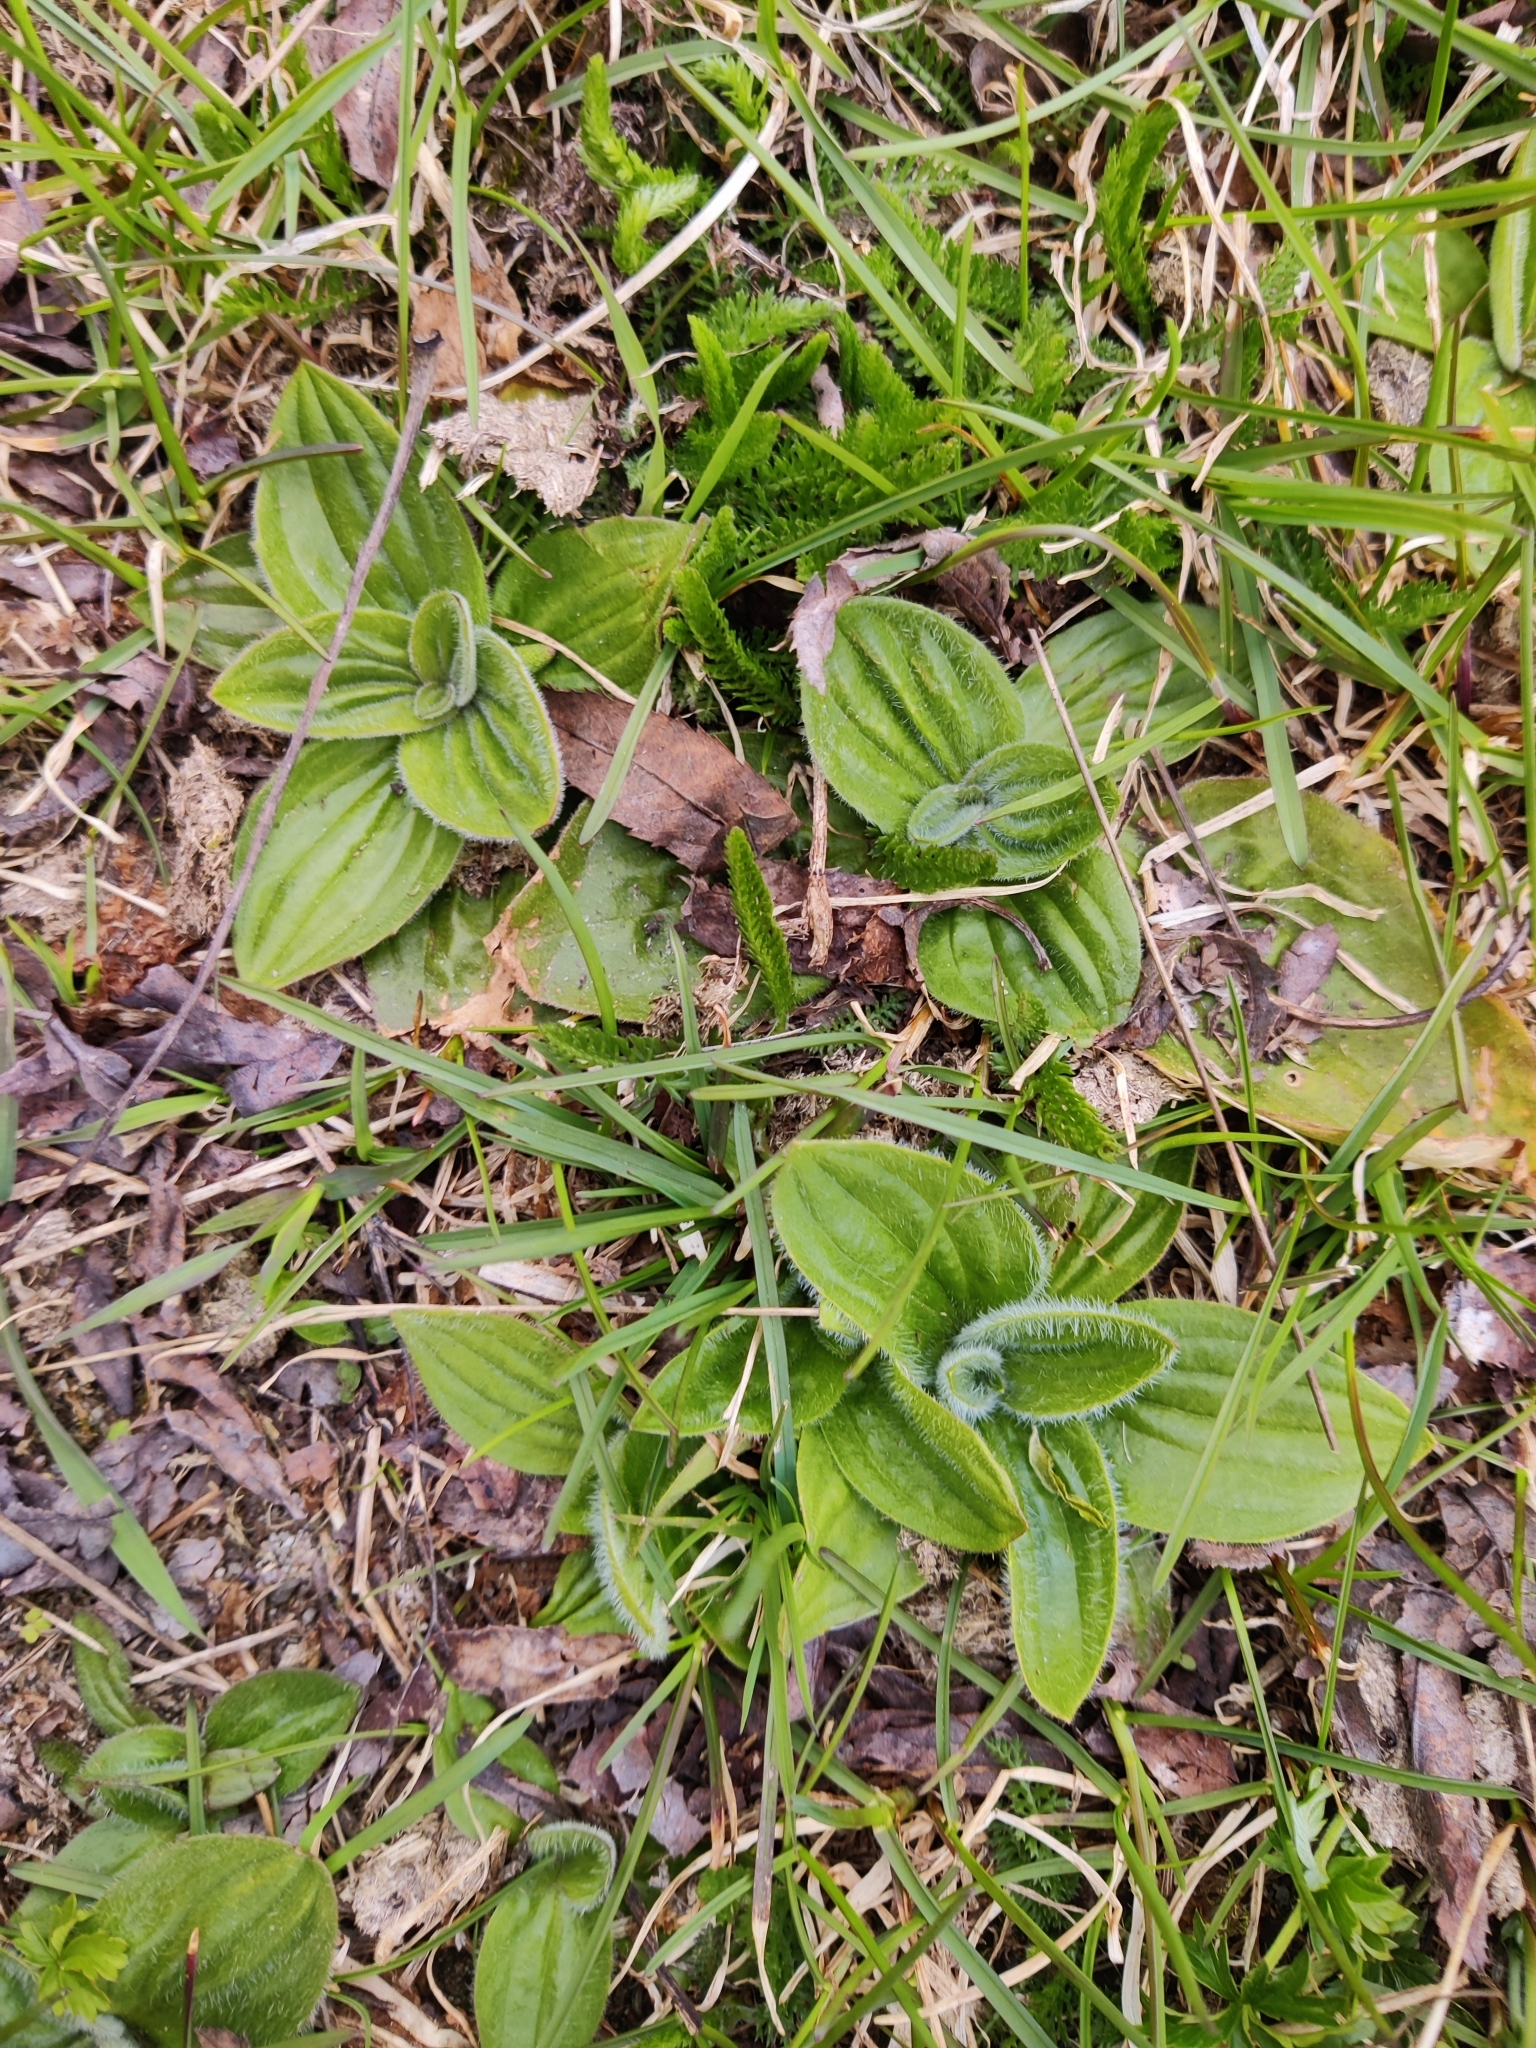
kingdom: Plantae
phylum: Tracheophyta
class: Magnoliopsida
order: Lamiales
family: Plantaginaceae
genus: Plantago
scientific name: Plantago media
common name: Hoary plantain
